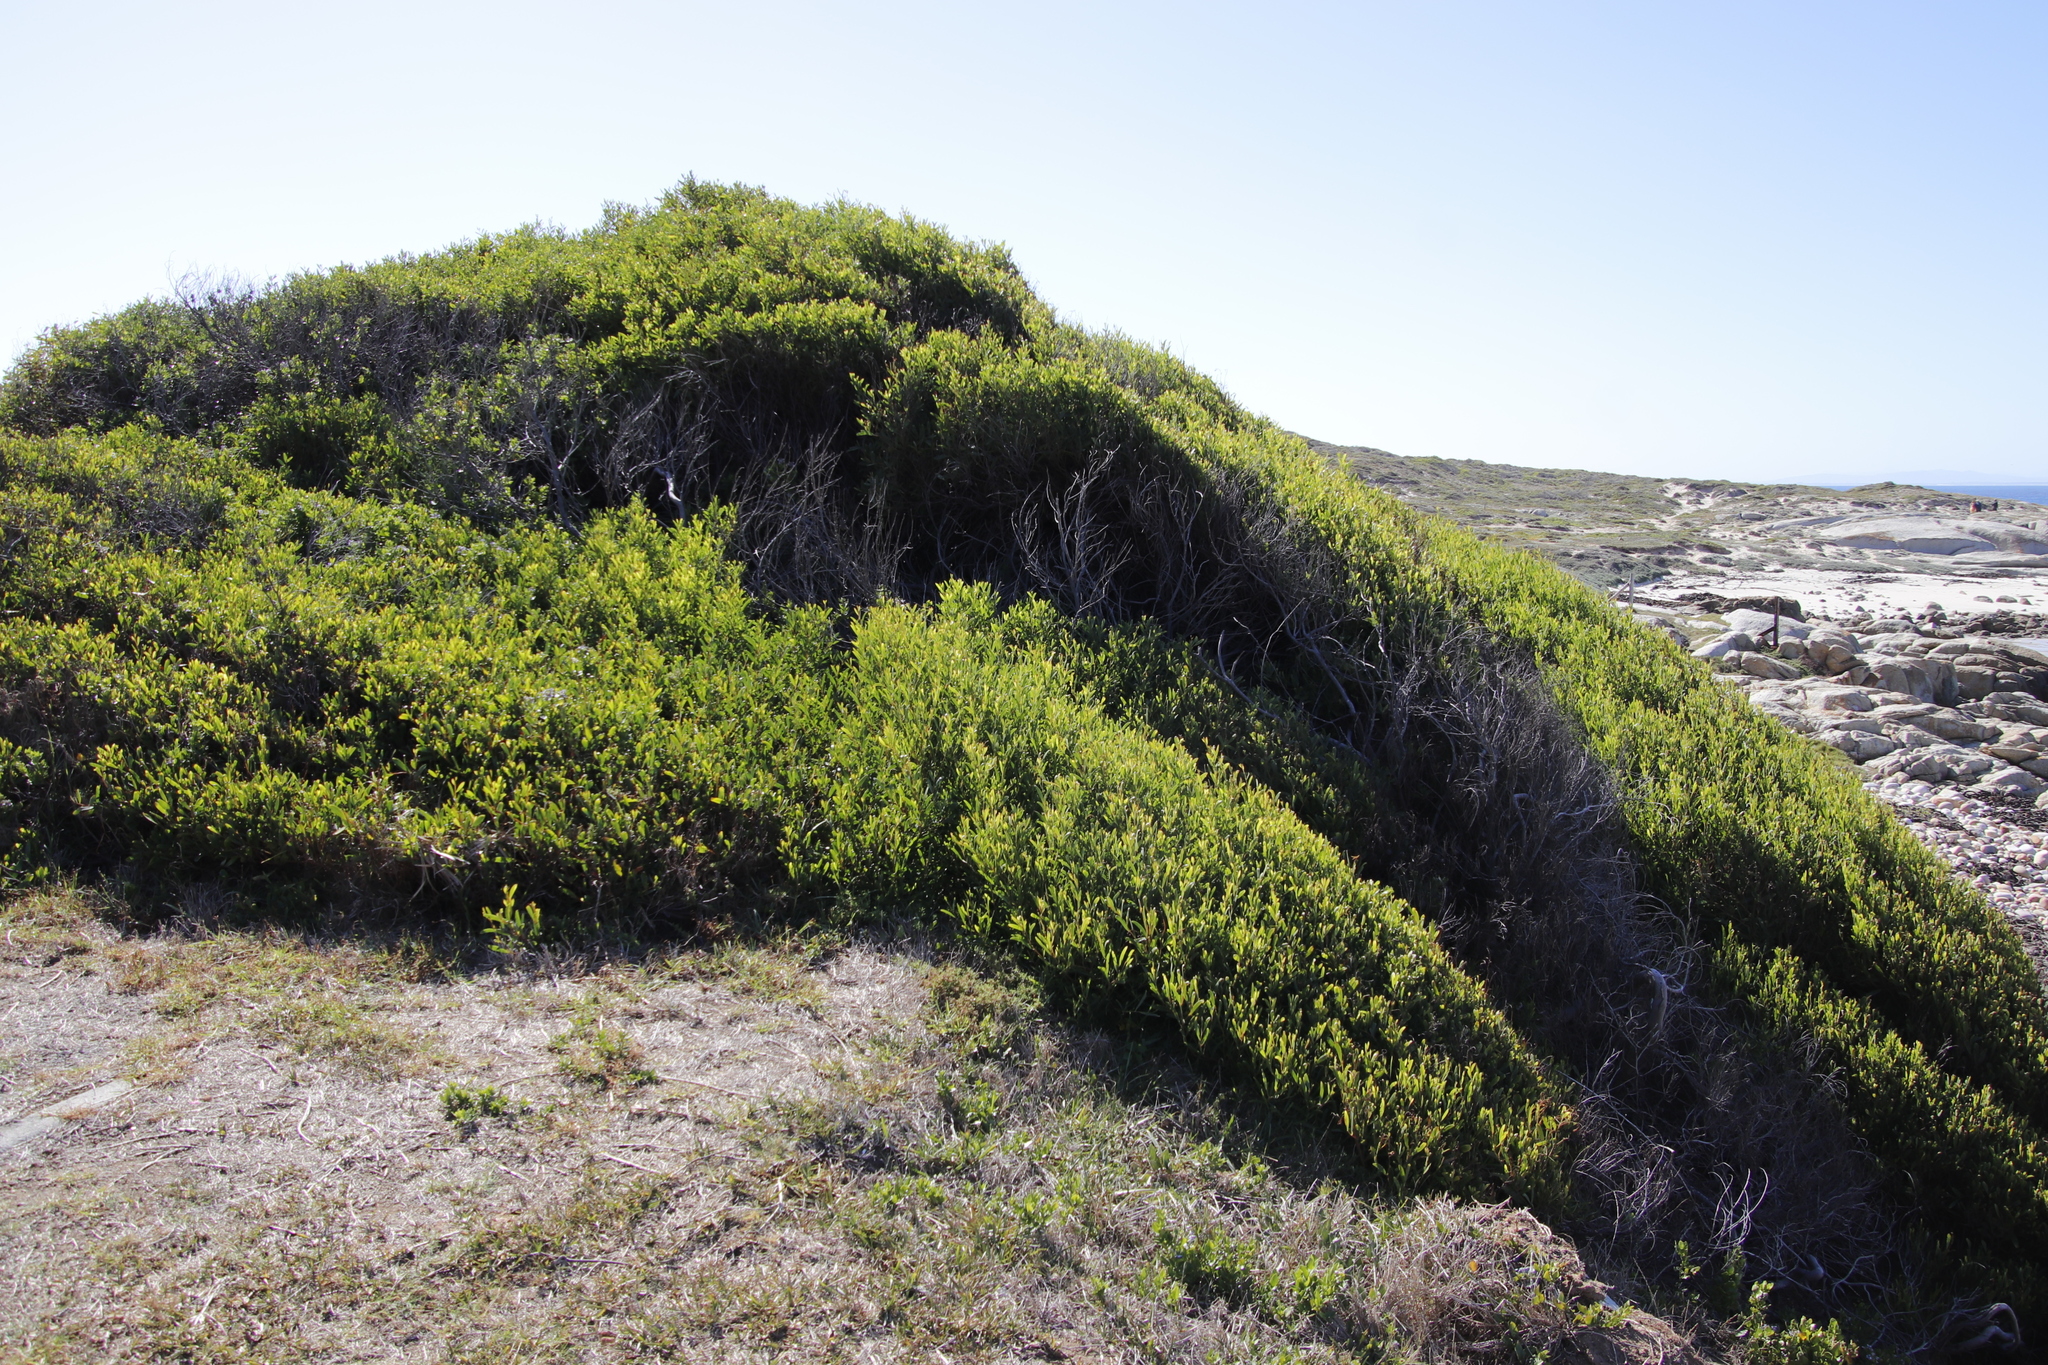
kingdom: Plantae
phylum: Tracheophyta
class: Magnoliopsida
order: Fabales
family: Fabaceae
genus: Acacia
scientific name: Acacia cyclops
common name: Coastal wattle
